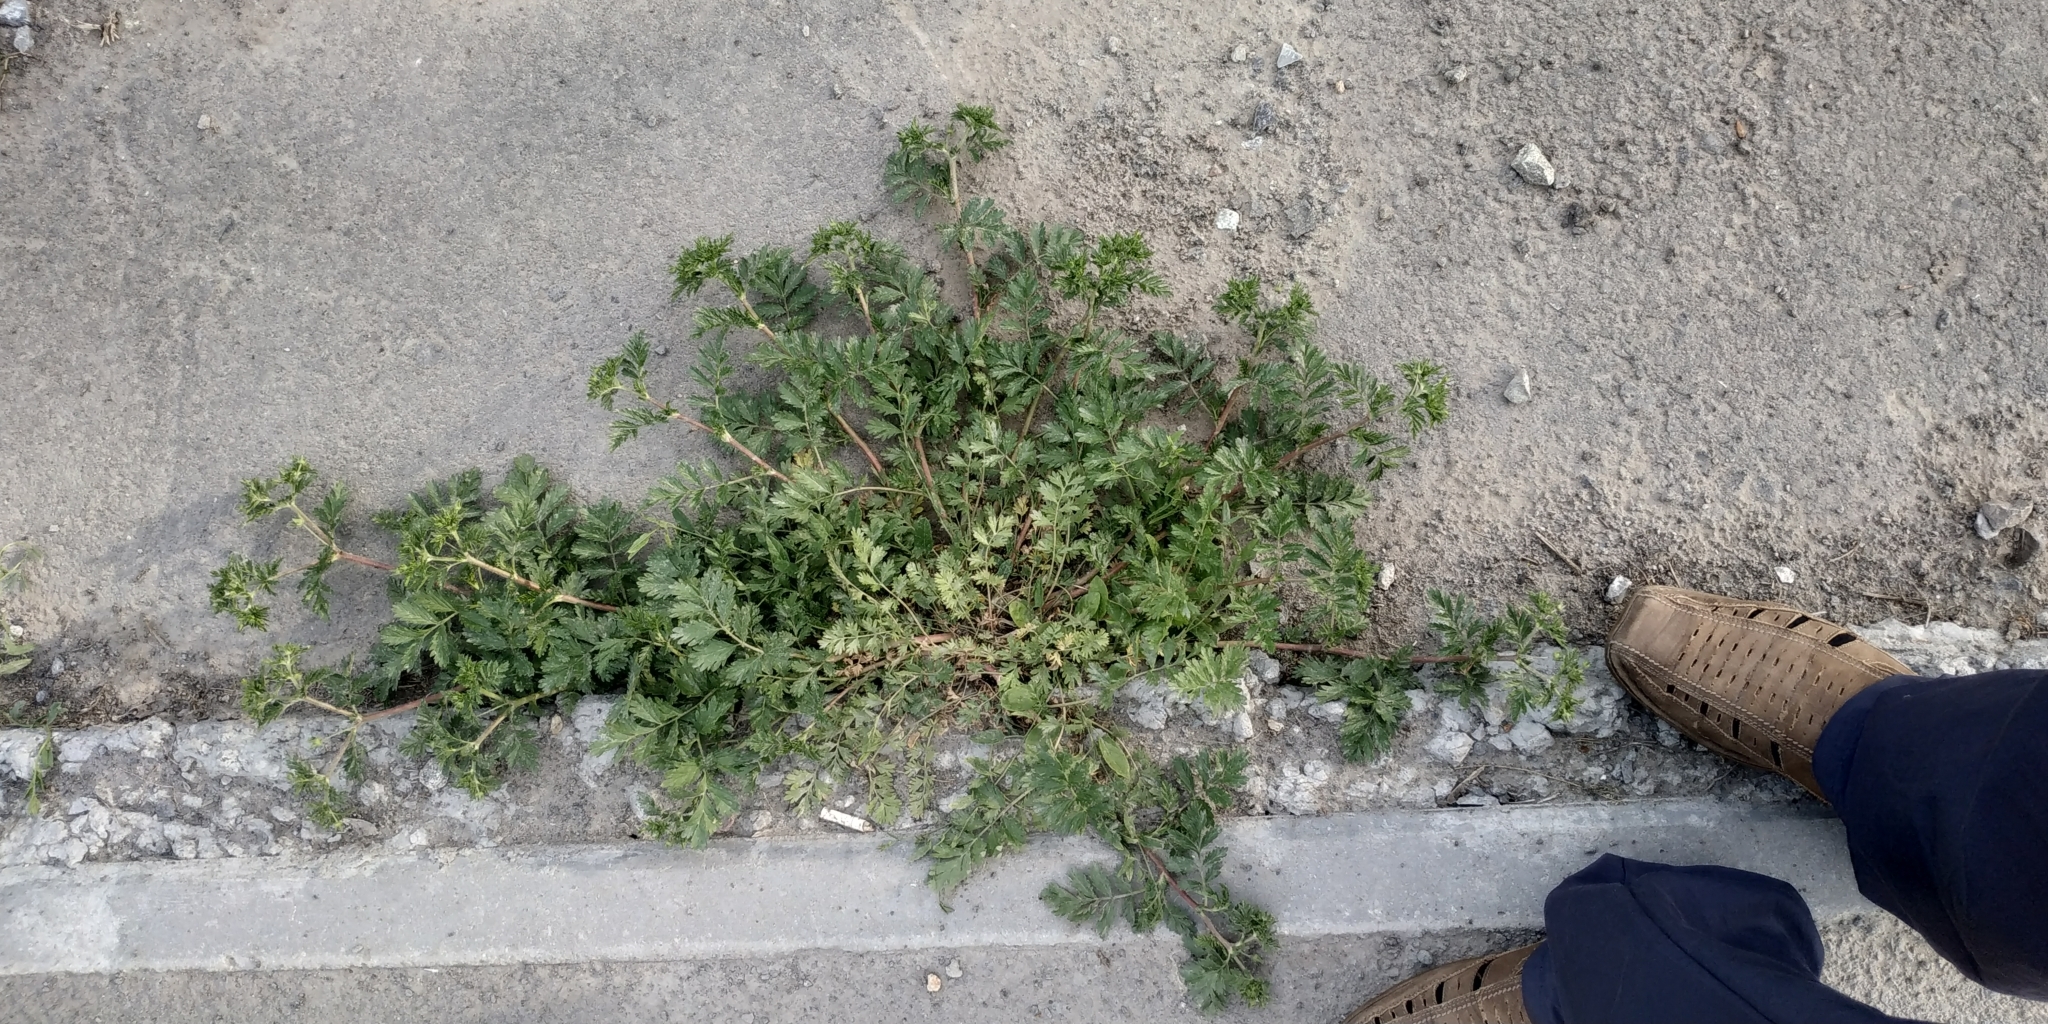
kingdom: Plantae
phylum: Tracheophyta
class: Magnoliopsida
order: Rosales
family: Rosaceae
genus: Potentilla
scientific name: Potentilla supina
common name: Prostrate cinquefoil
